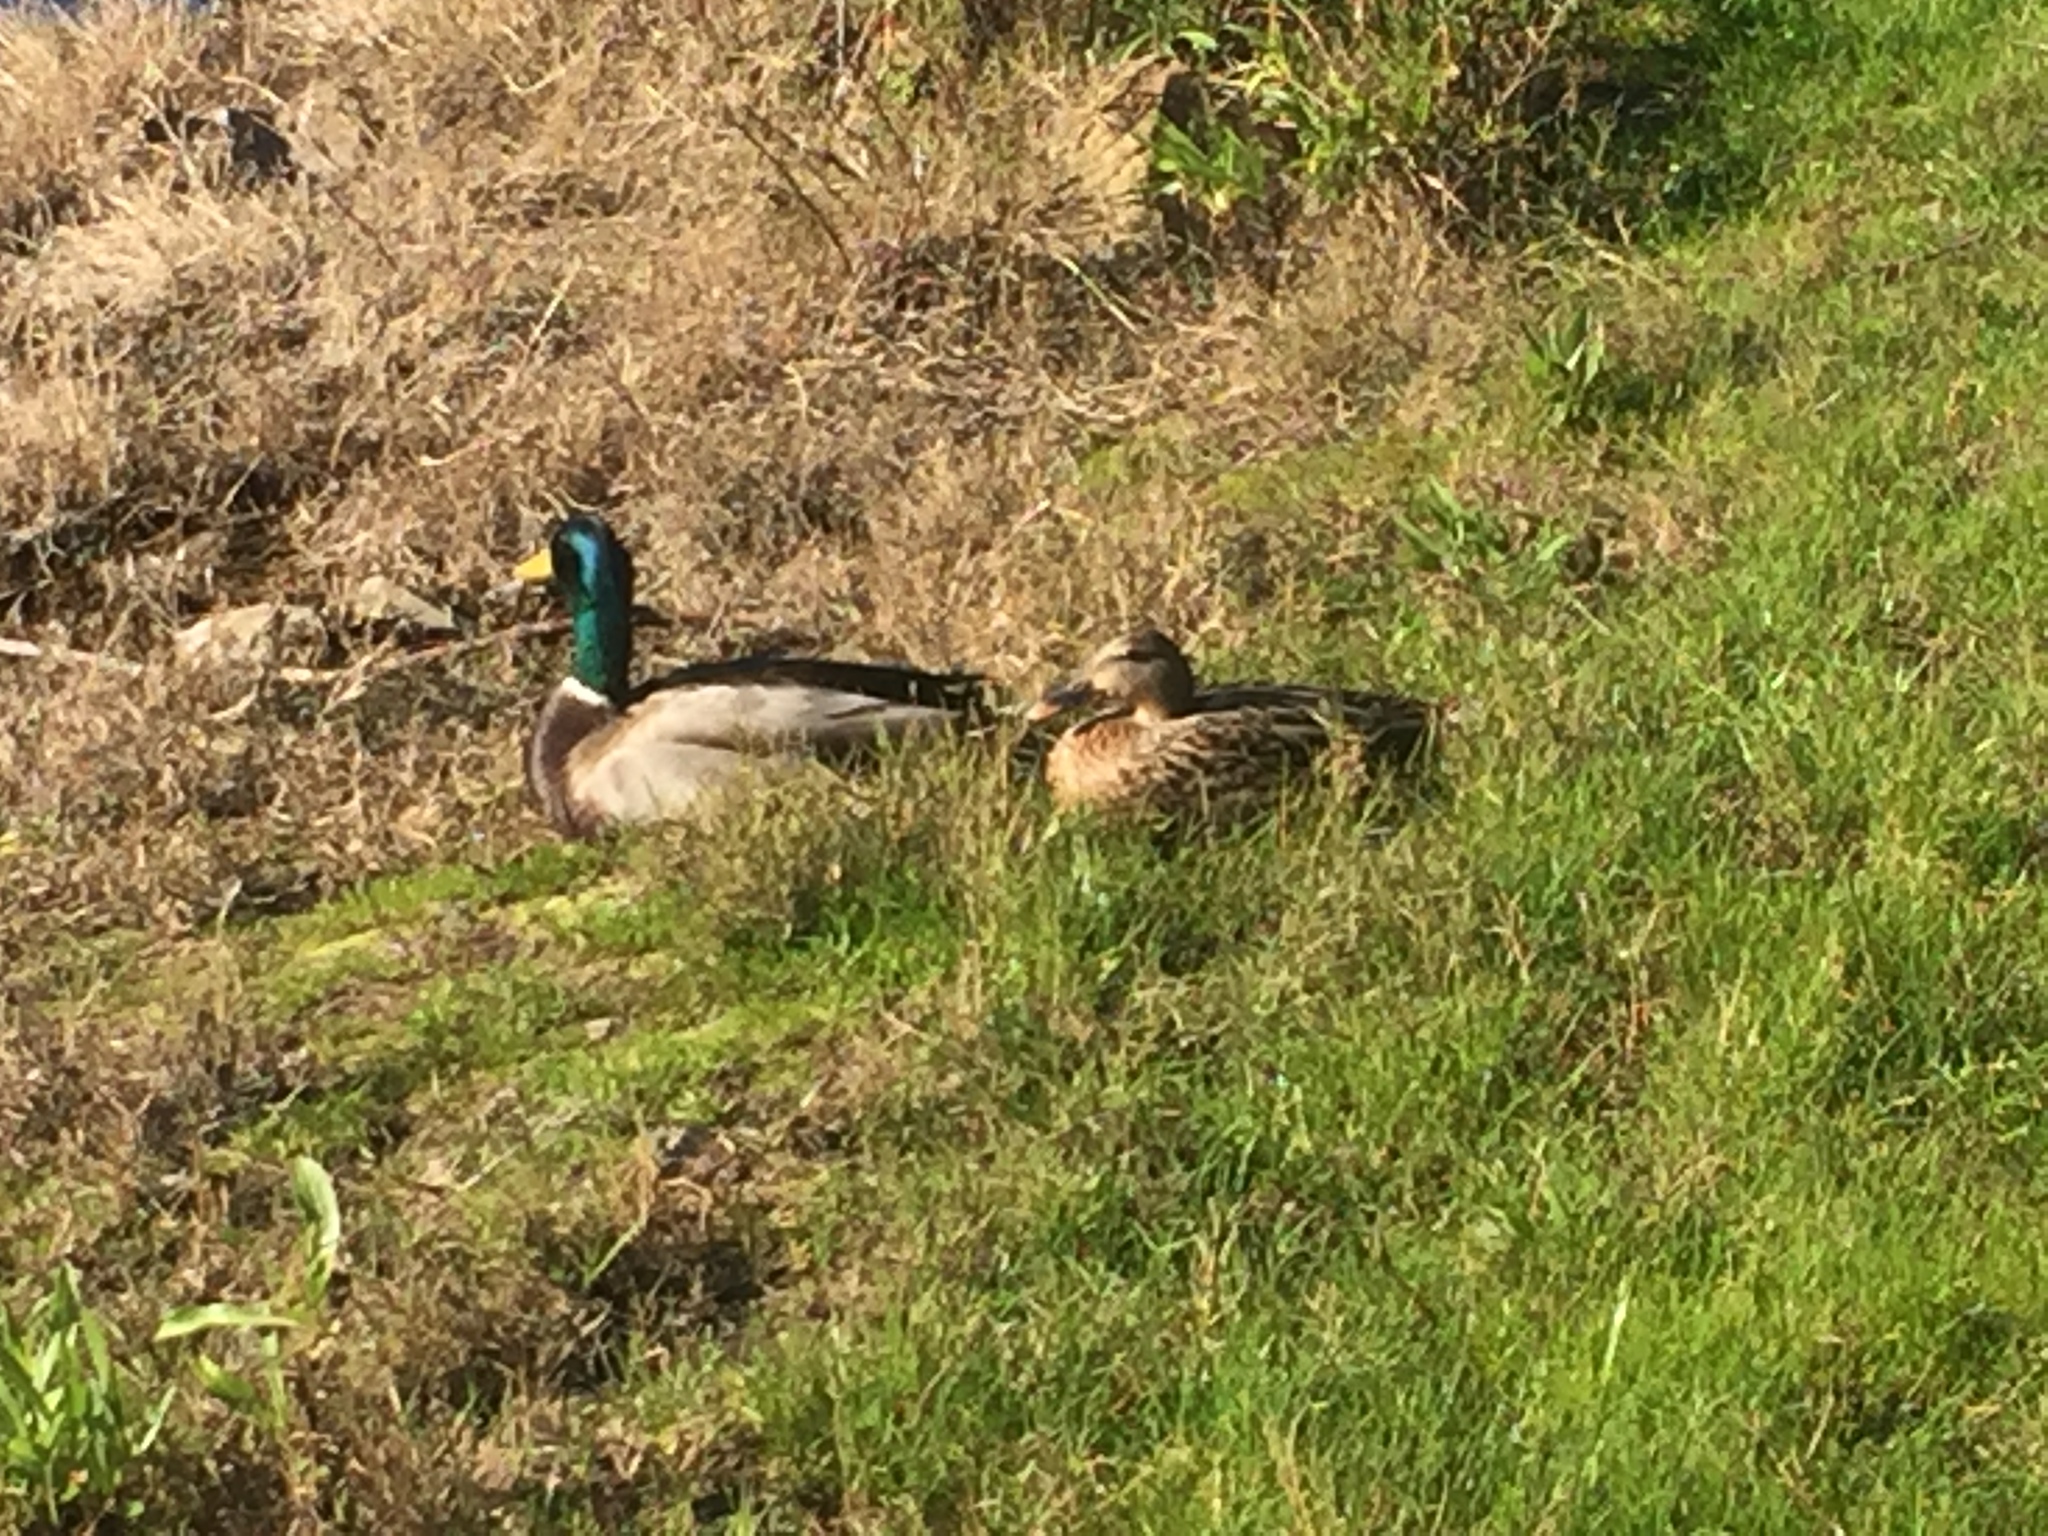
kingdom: Animalia
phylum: Chordata
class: Aves
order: Anseriformes
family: Anatidae
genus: Anas
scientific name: Anas platyrhynchos
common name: Mallard
